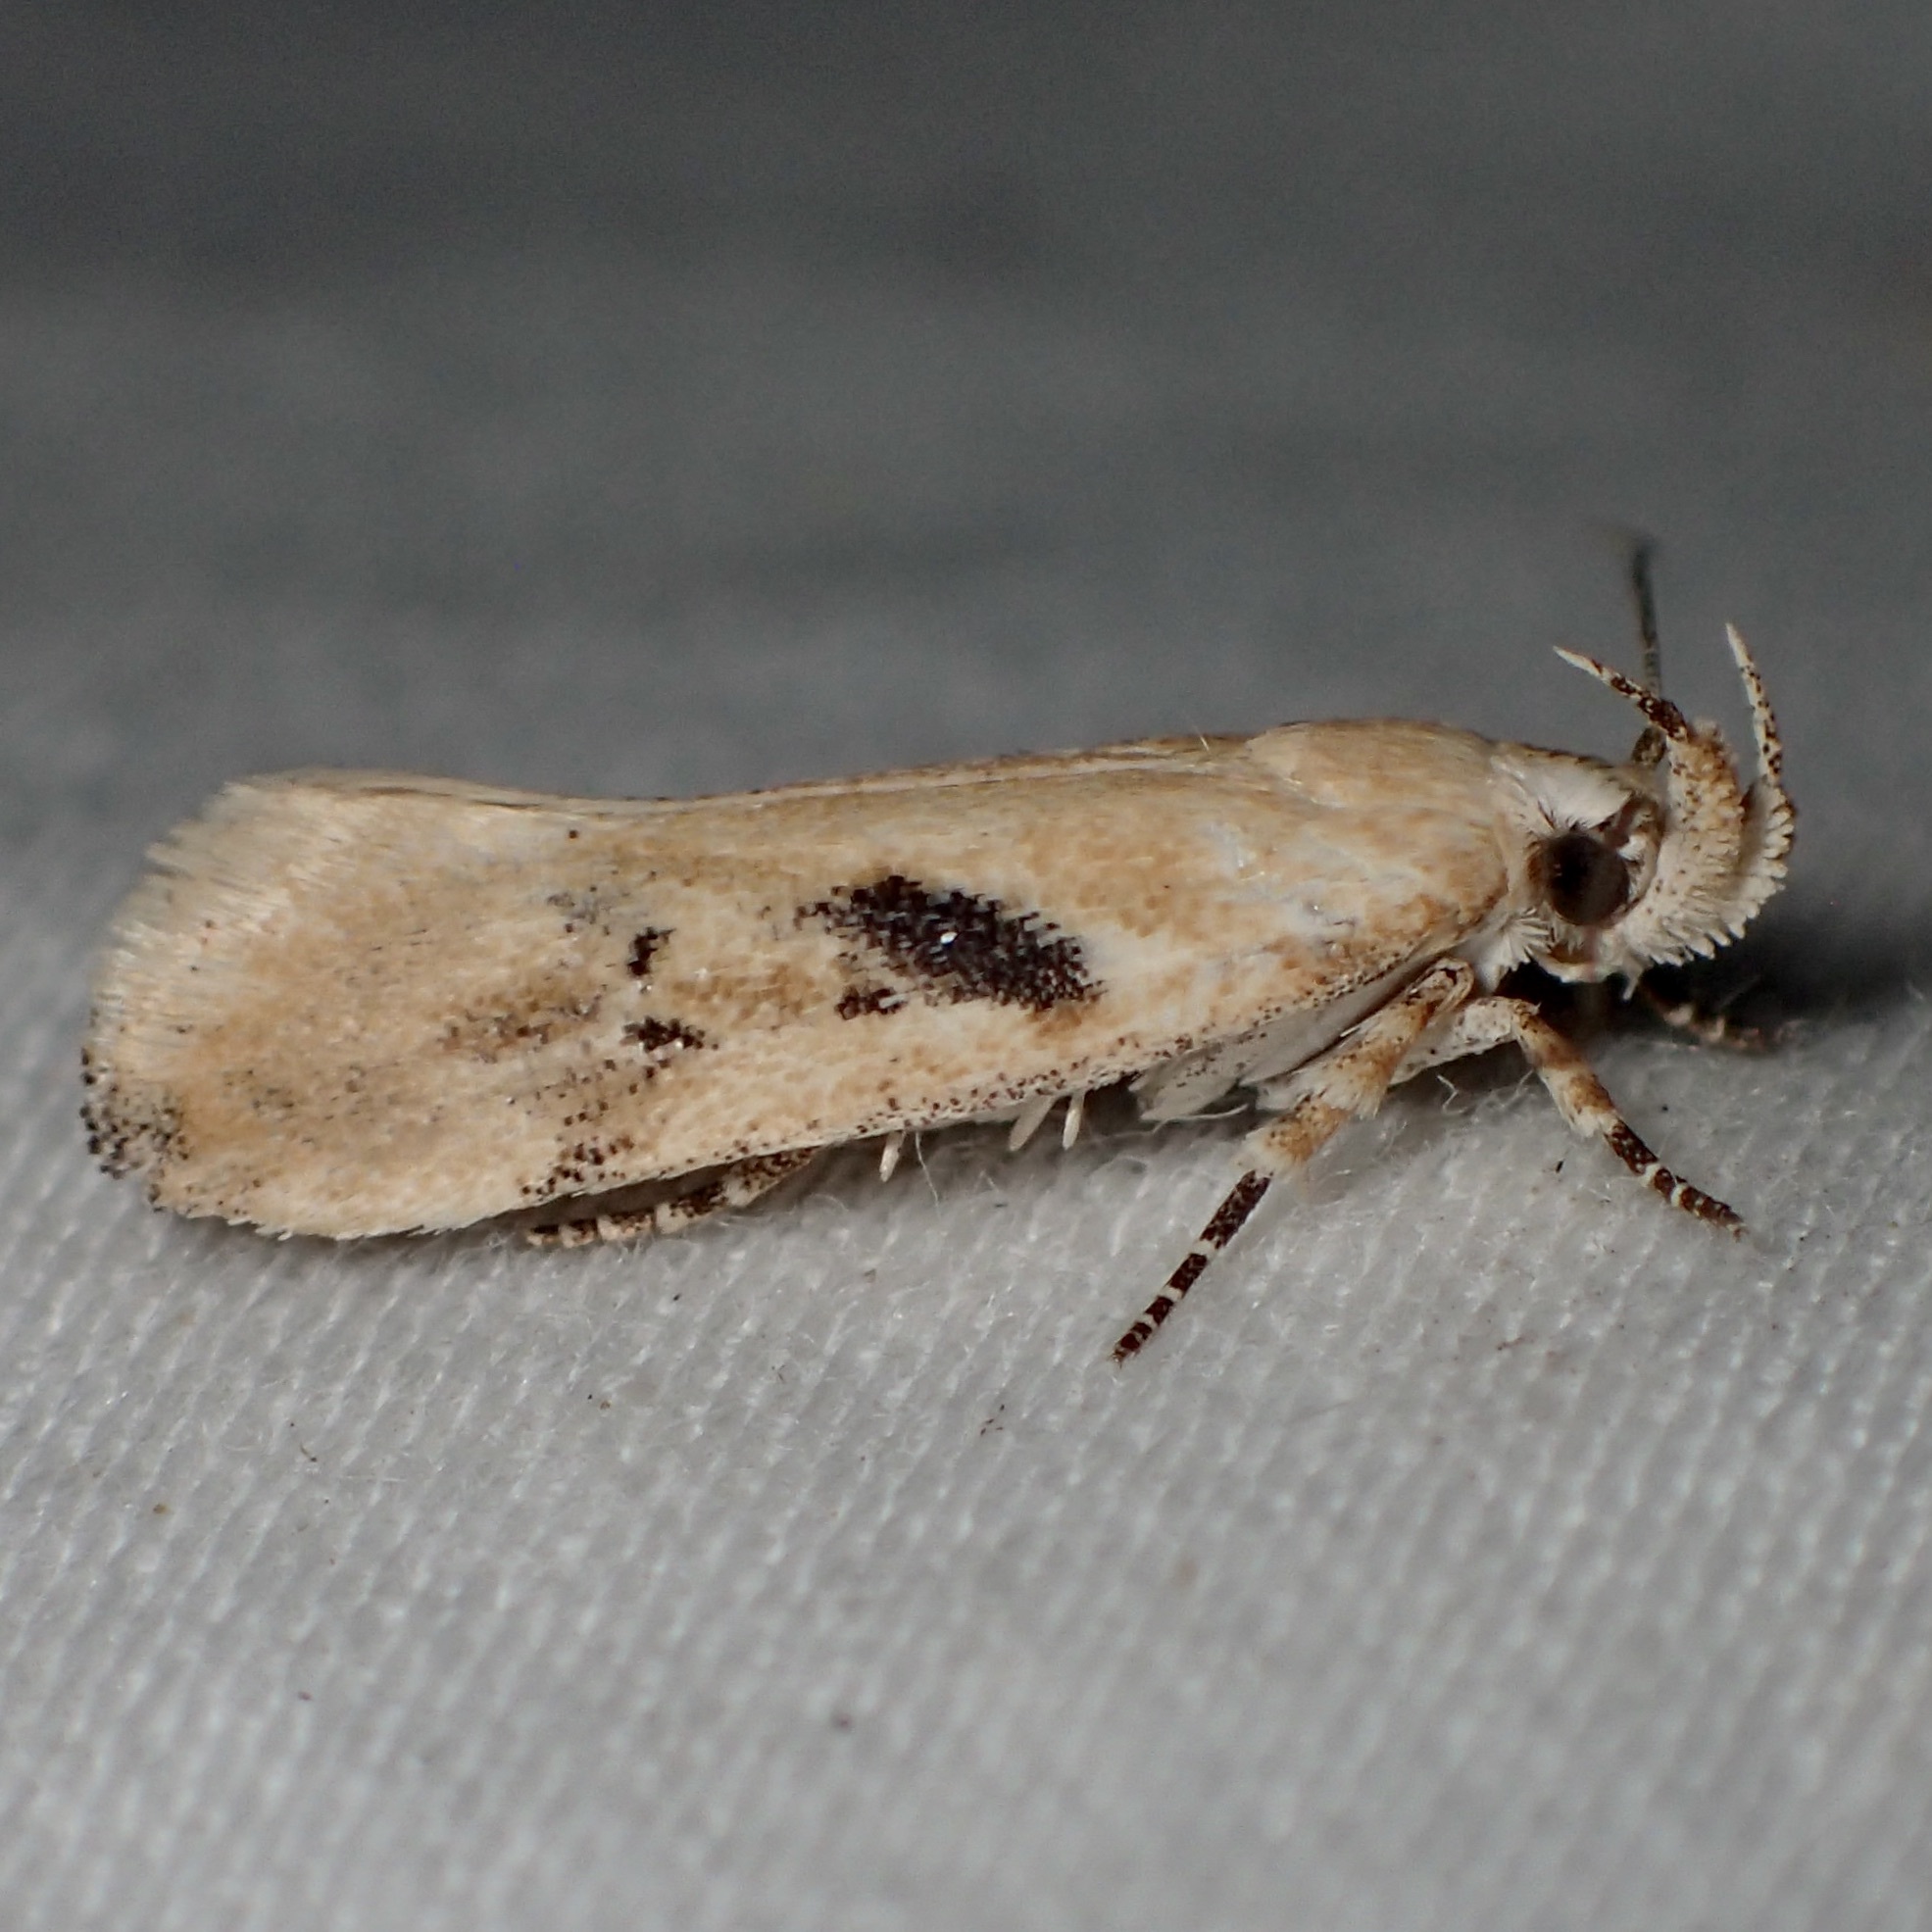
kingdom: Animalia
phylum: Arthropoda
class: Insecta
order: Lepidoptera
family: Gelechiidae
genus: Filatima
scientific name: Filatima depuratella
